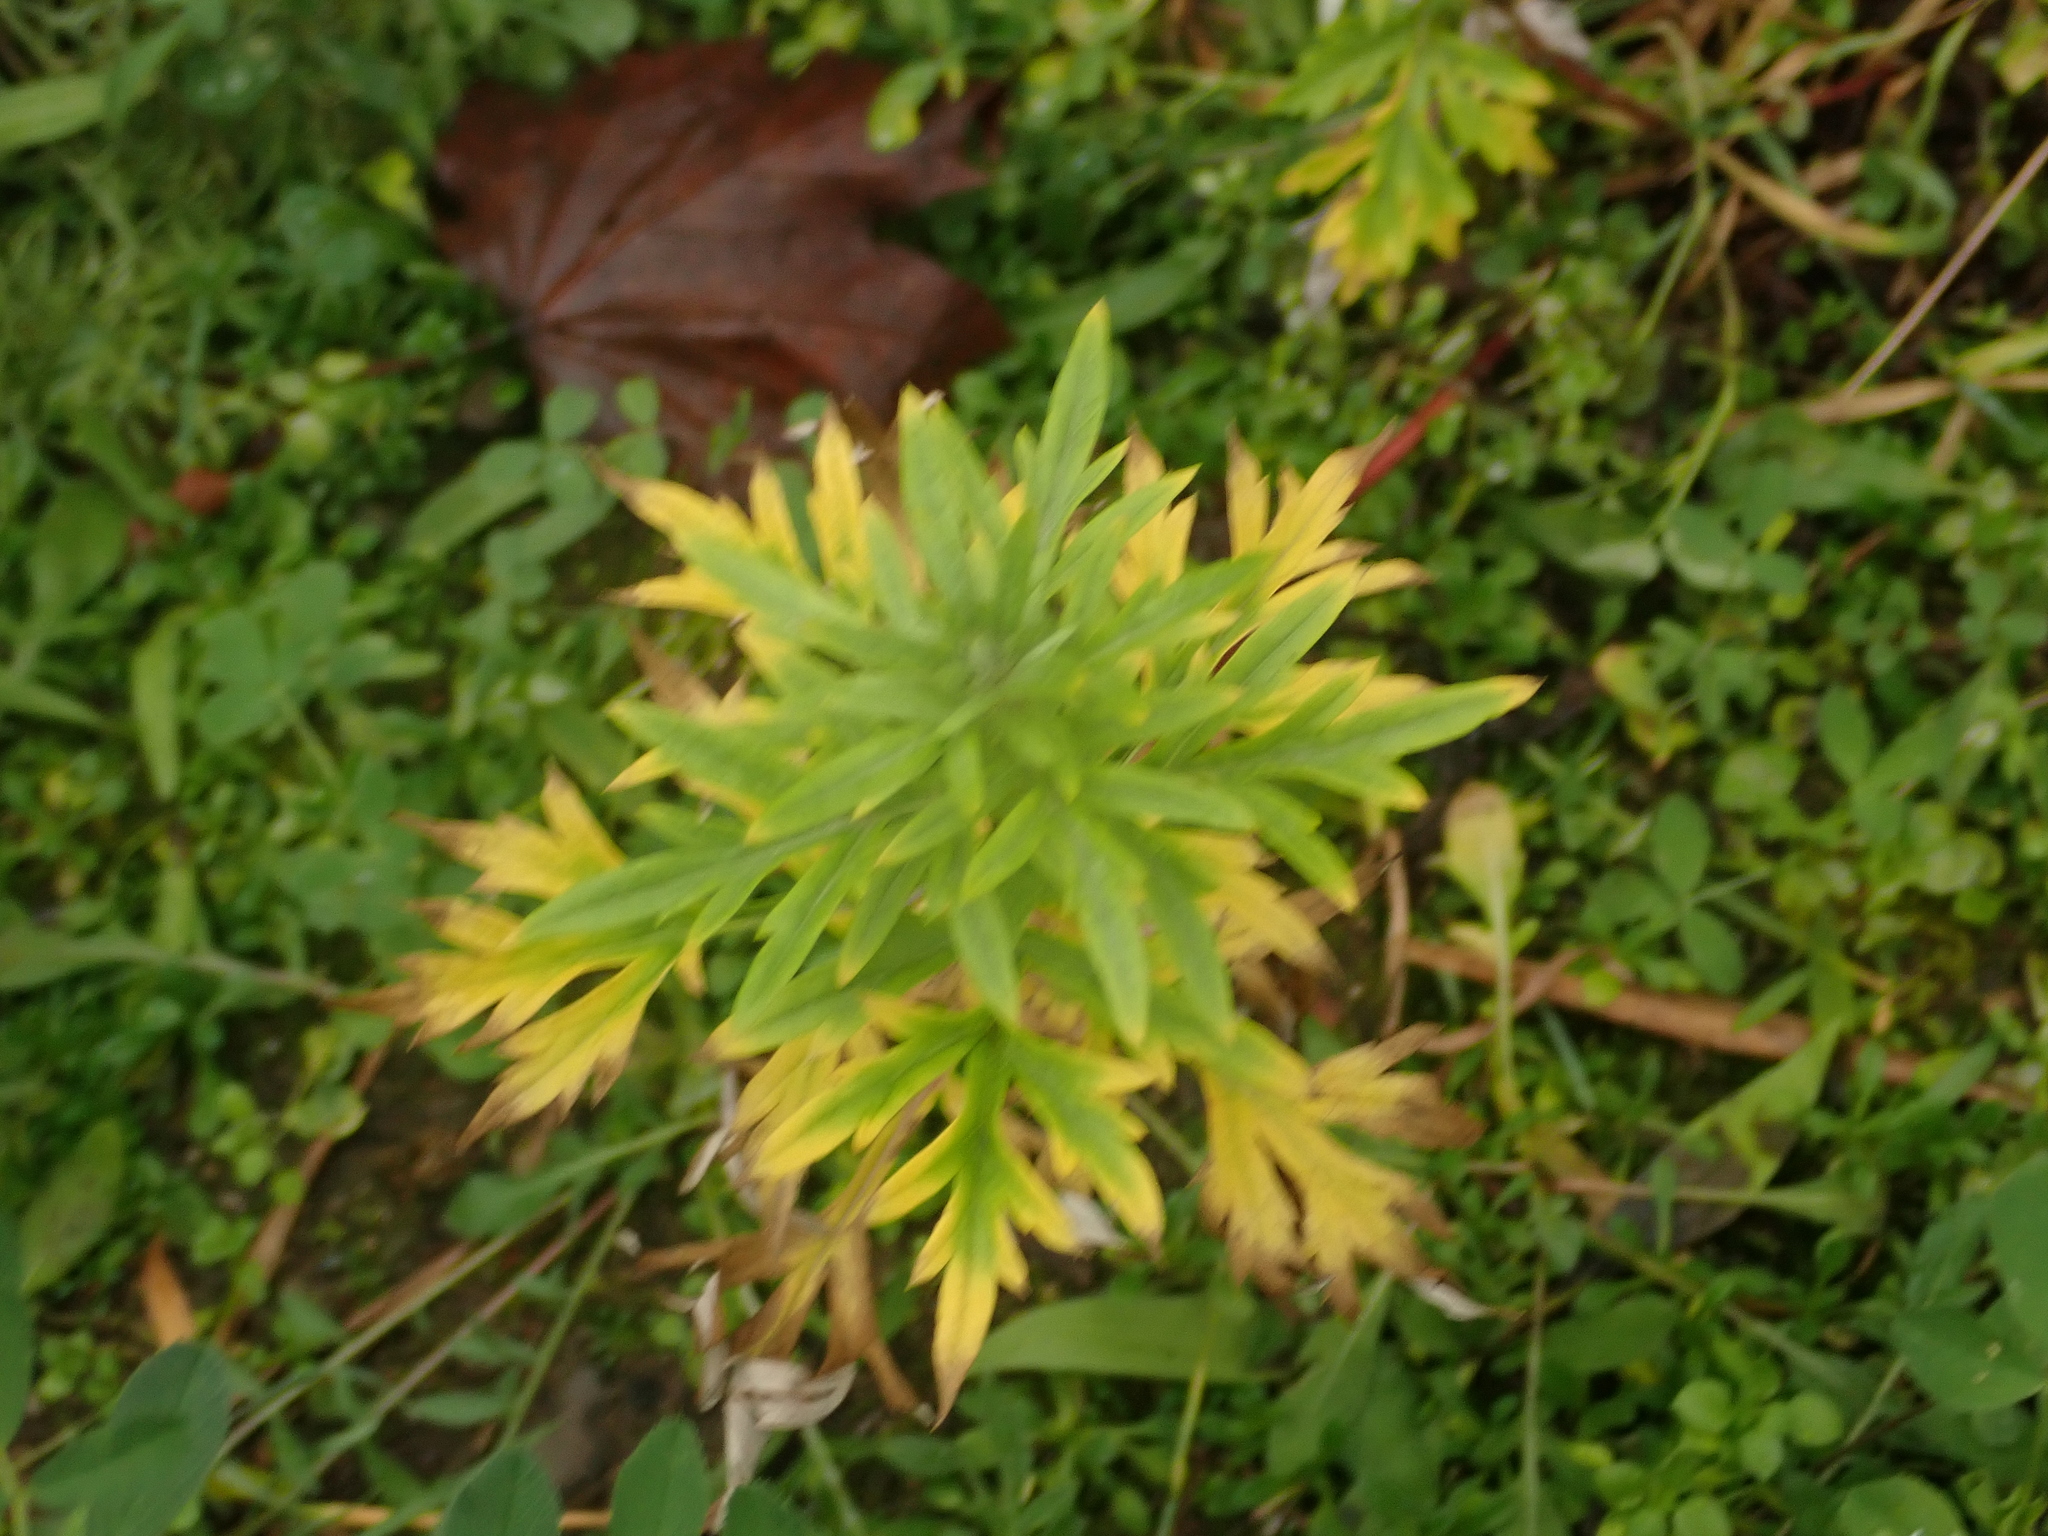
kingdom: Plantae
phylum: Tracheophyta
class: Magnoliopsida
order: Asterales
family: Asteraceae
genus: Artemisia
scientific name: Artemisia vulgaris
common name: Mugwort
